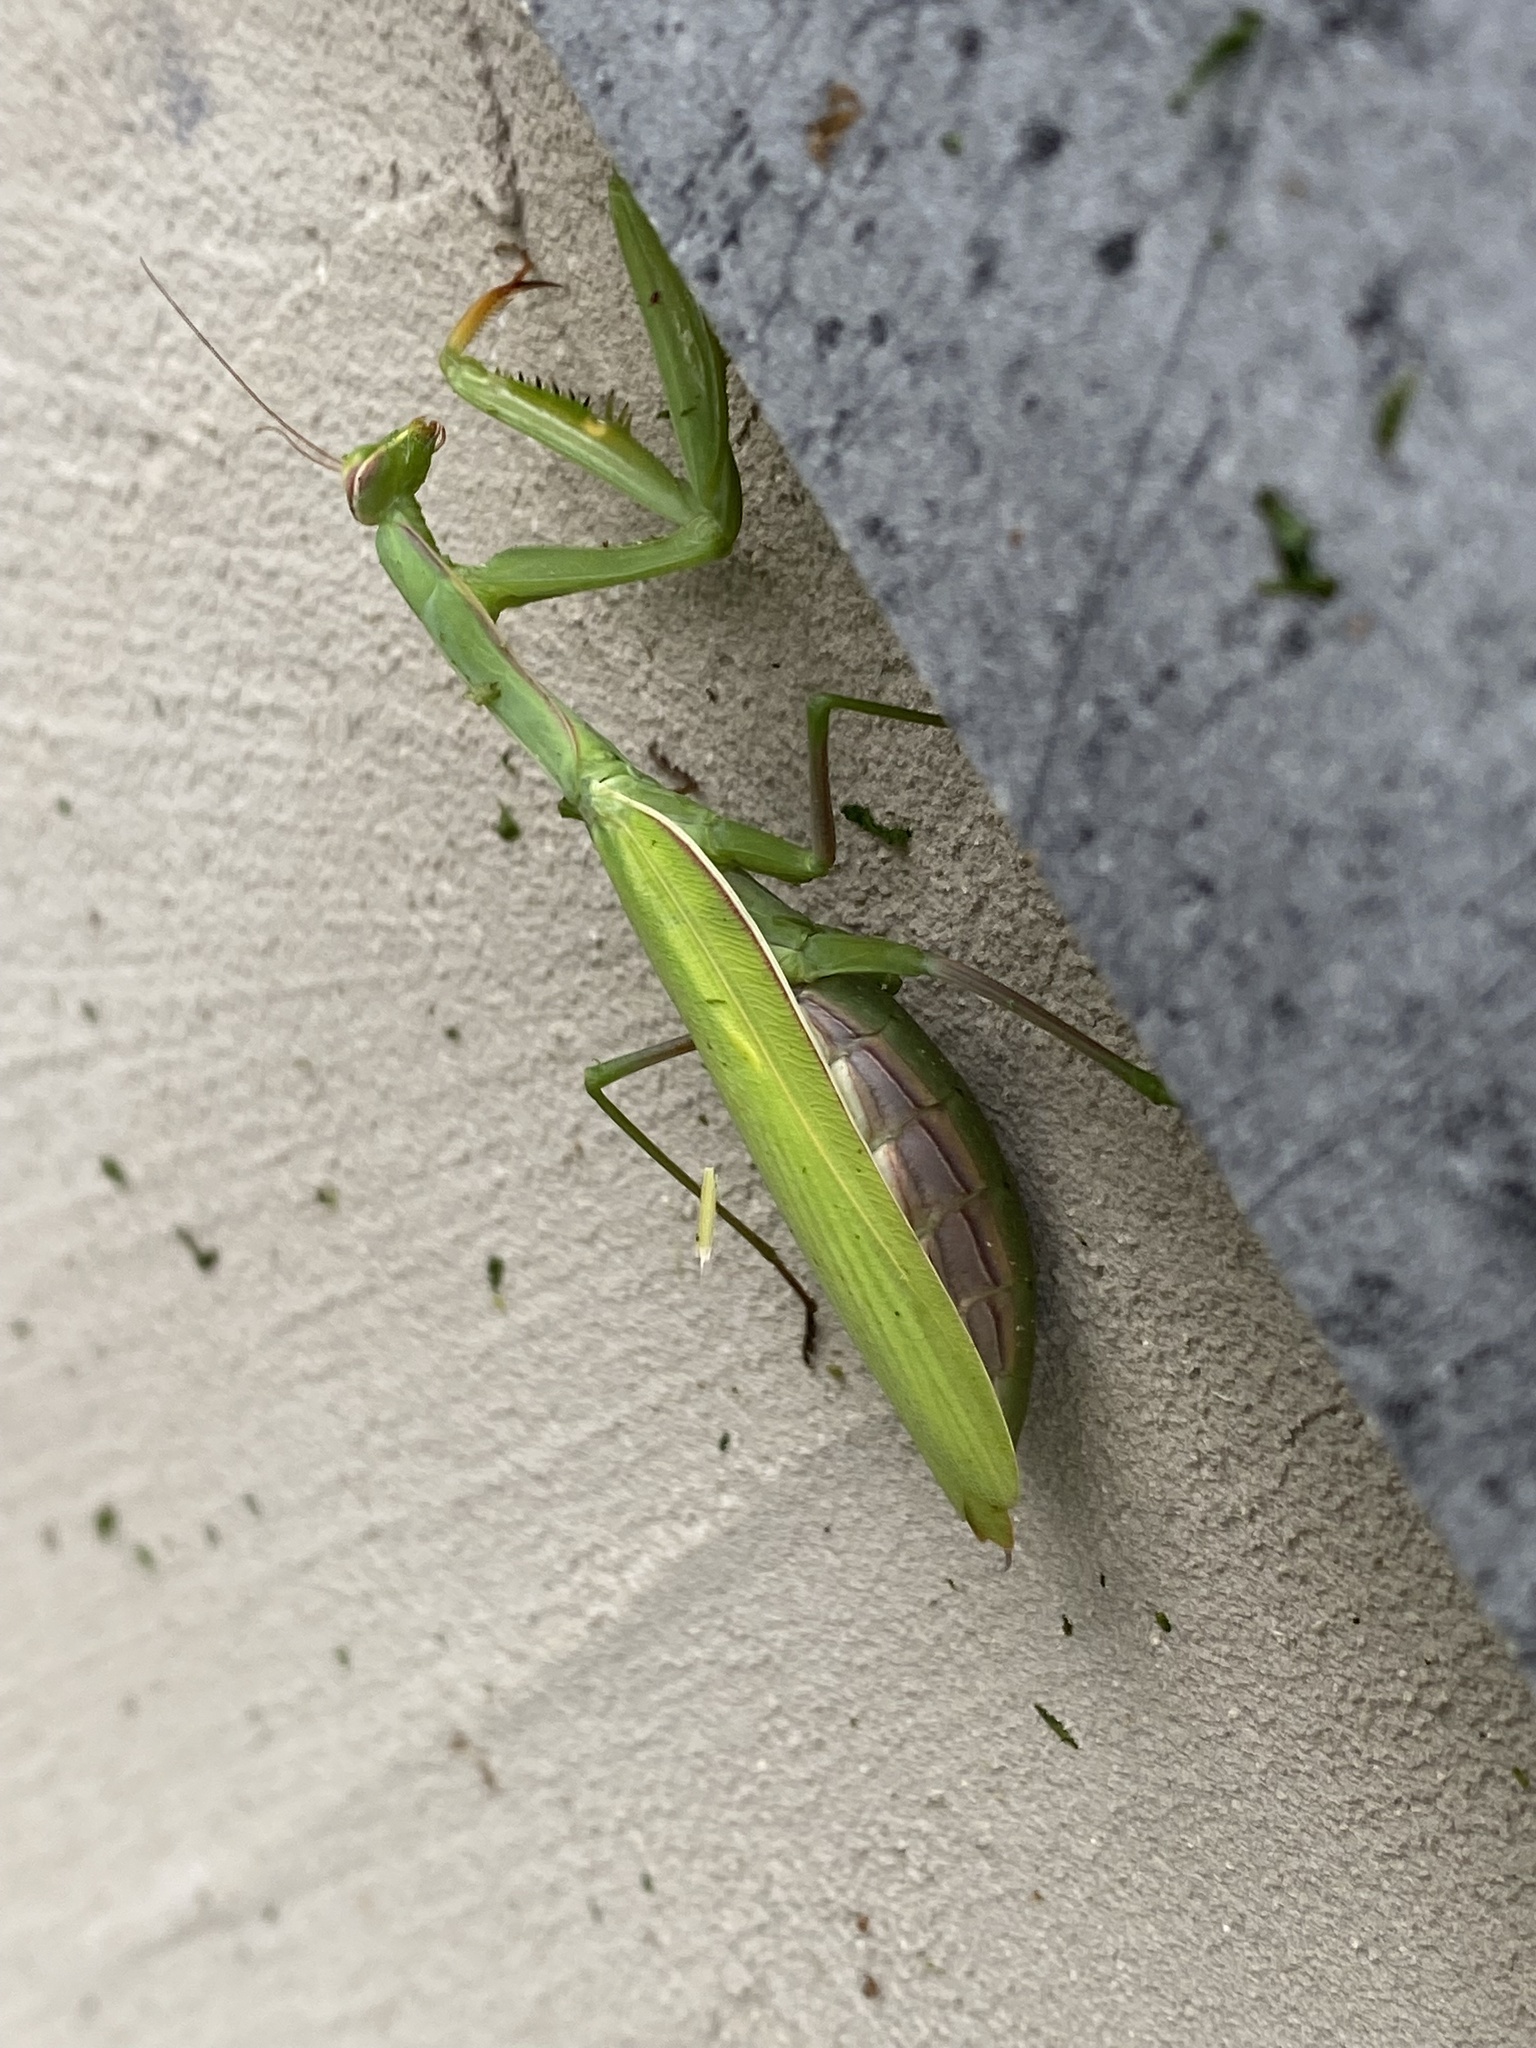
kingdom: Animalia
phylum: Arthropoda
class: Insecta
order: Mantodea
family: Mantidae
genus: Mantis
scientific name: Mantis religiosa
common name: Praying mantis
